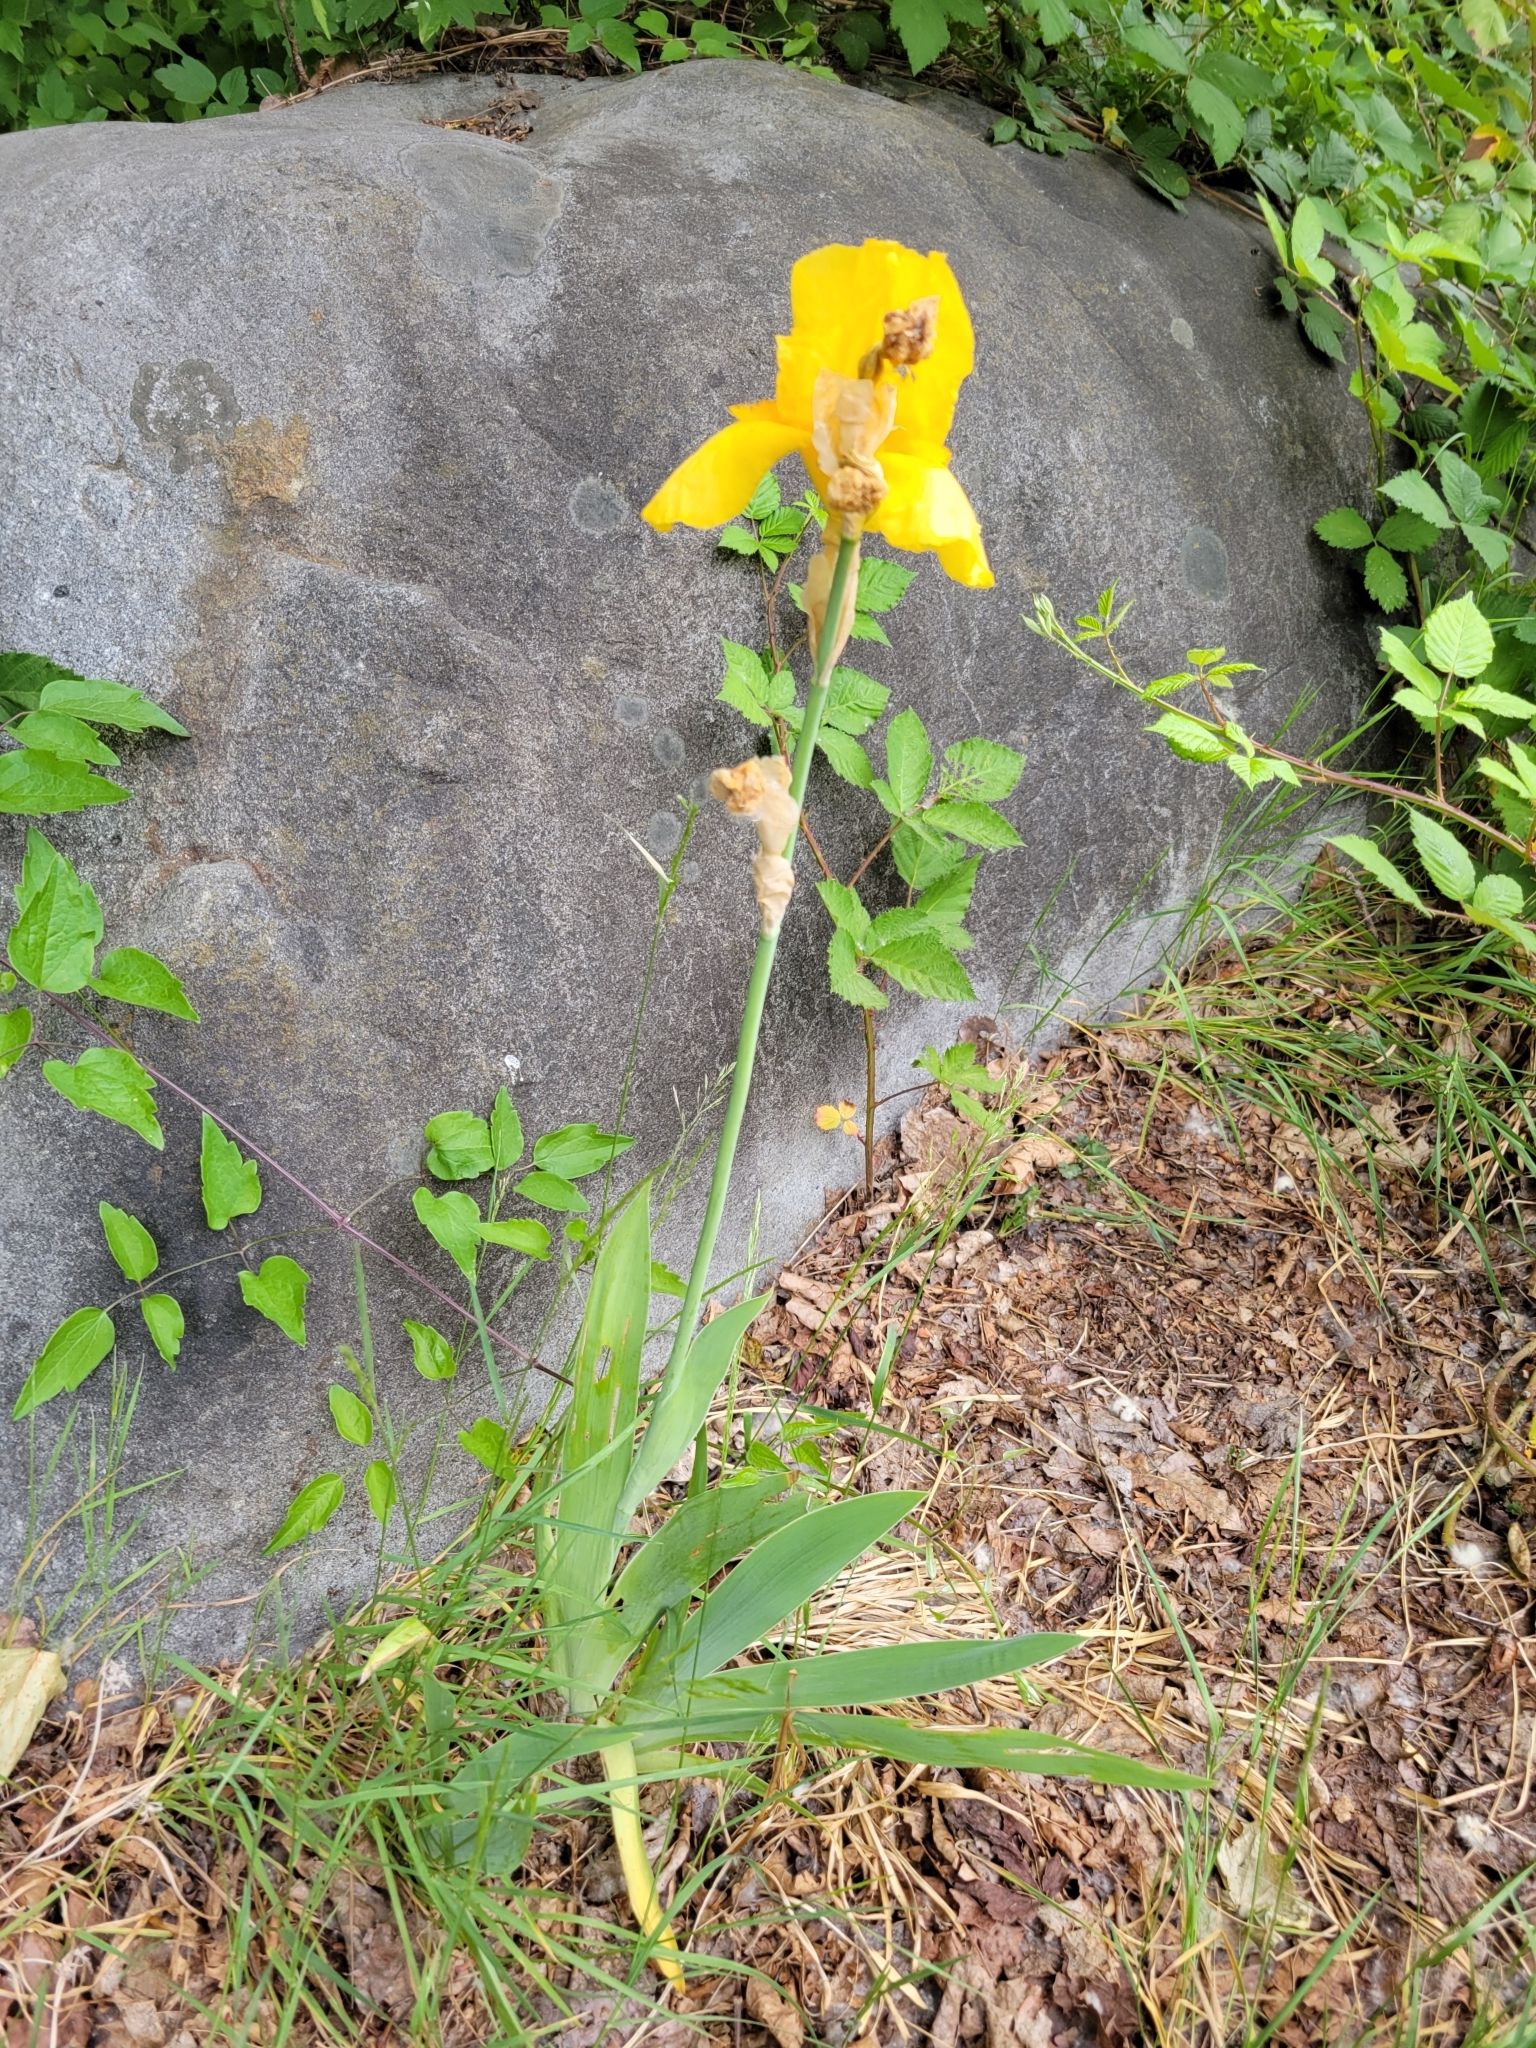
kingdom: Plantae
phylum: Tracheophyta
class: Liliopsida
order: Asparagales
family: Iridaceae
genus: Iris
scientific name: Iris hybrida
